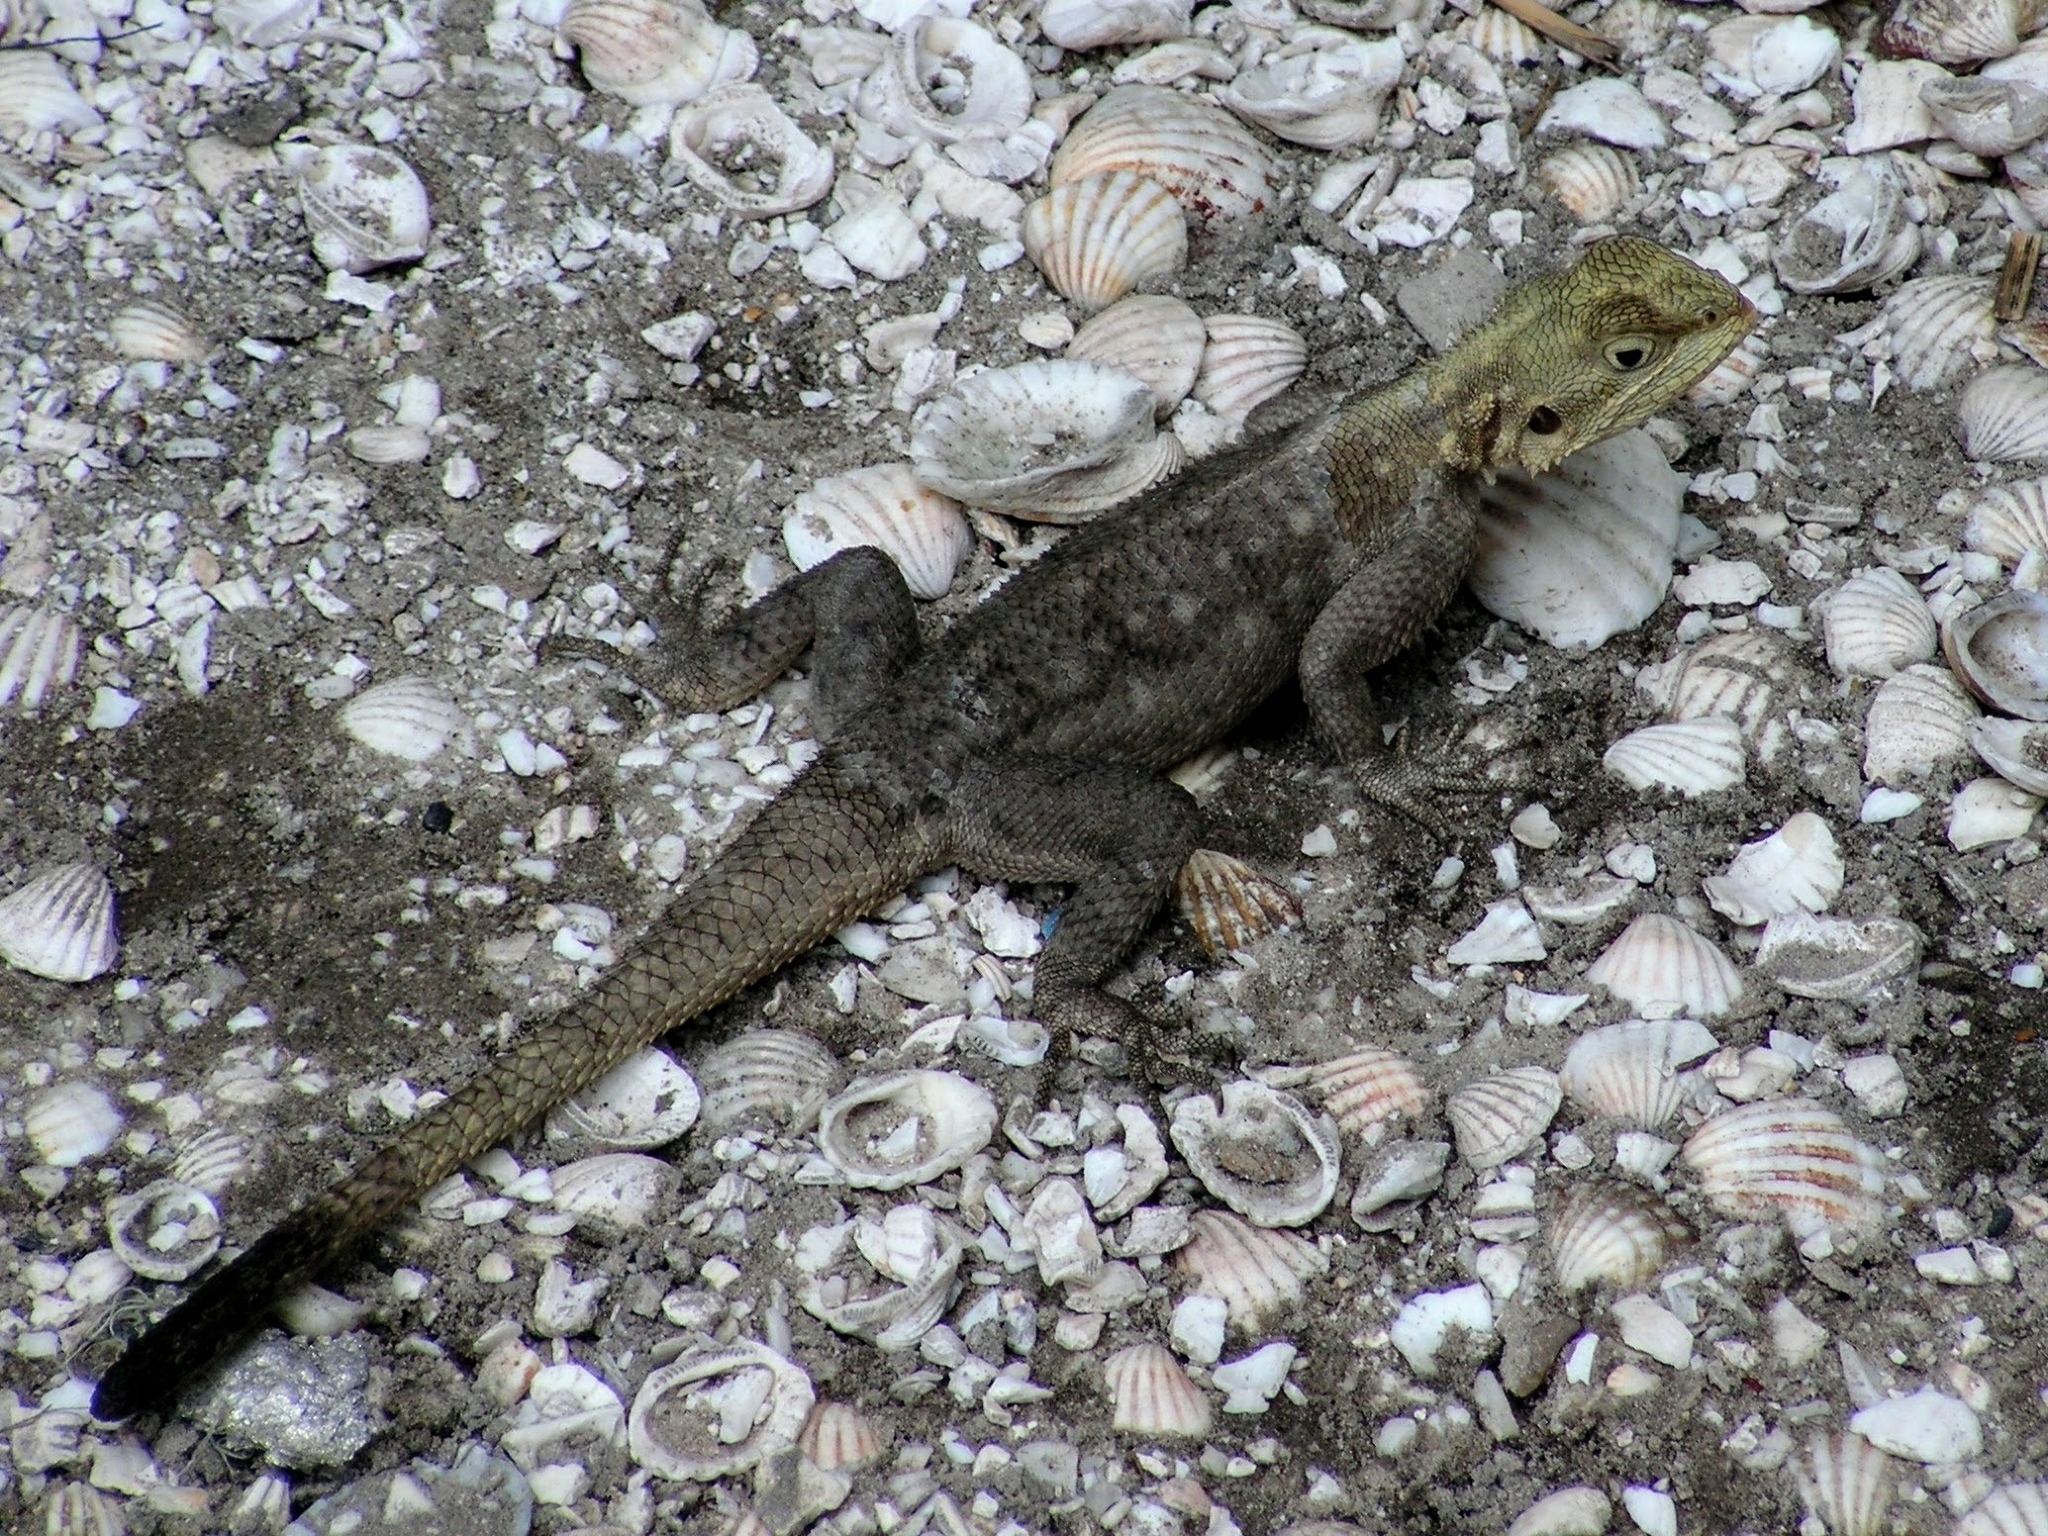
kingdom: Animalia
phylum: Chordata
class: Squamata
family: Agamidae
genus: Agama
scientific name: Agama agama
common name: Common agama
